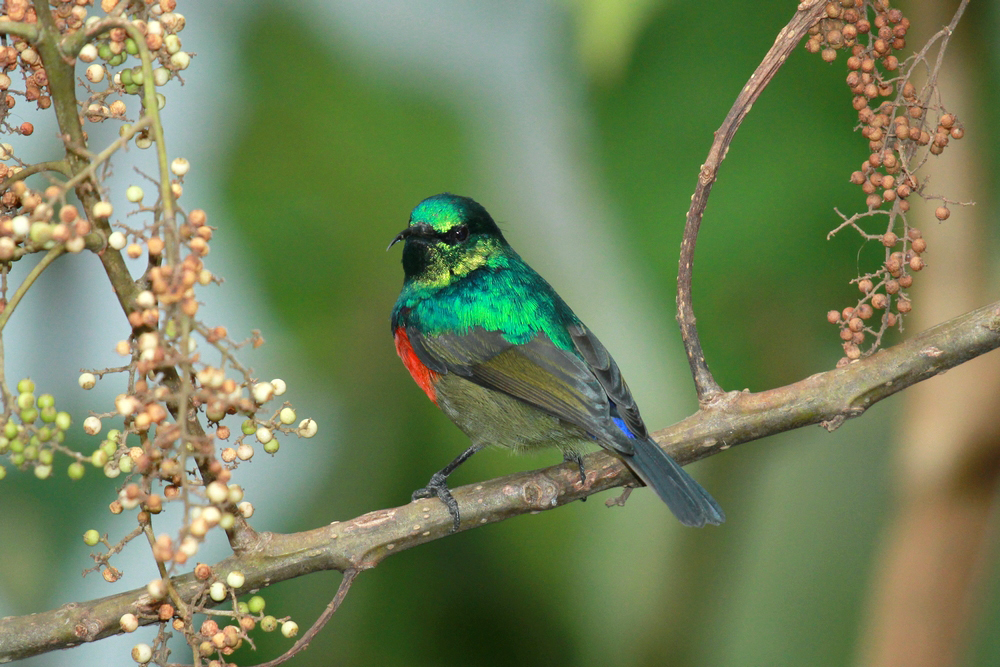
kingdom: Animalia
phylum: Chordata
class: Aves
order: Passeriformes
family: Nectariniidae
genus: Cinnyris
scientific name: Cinnyris reichenowi
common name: Northern double-collared sunbird
